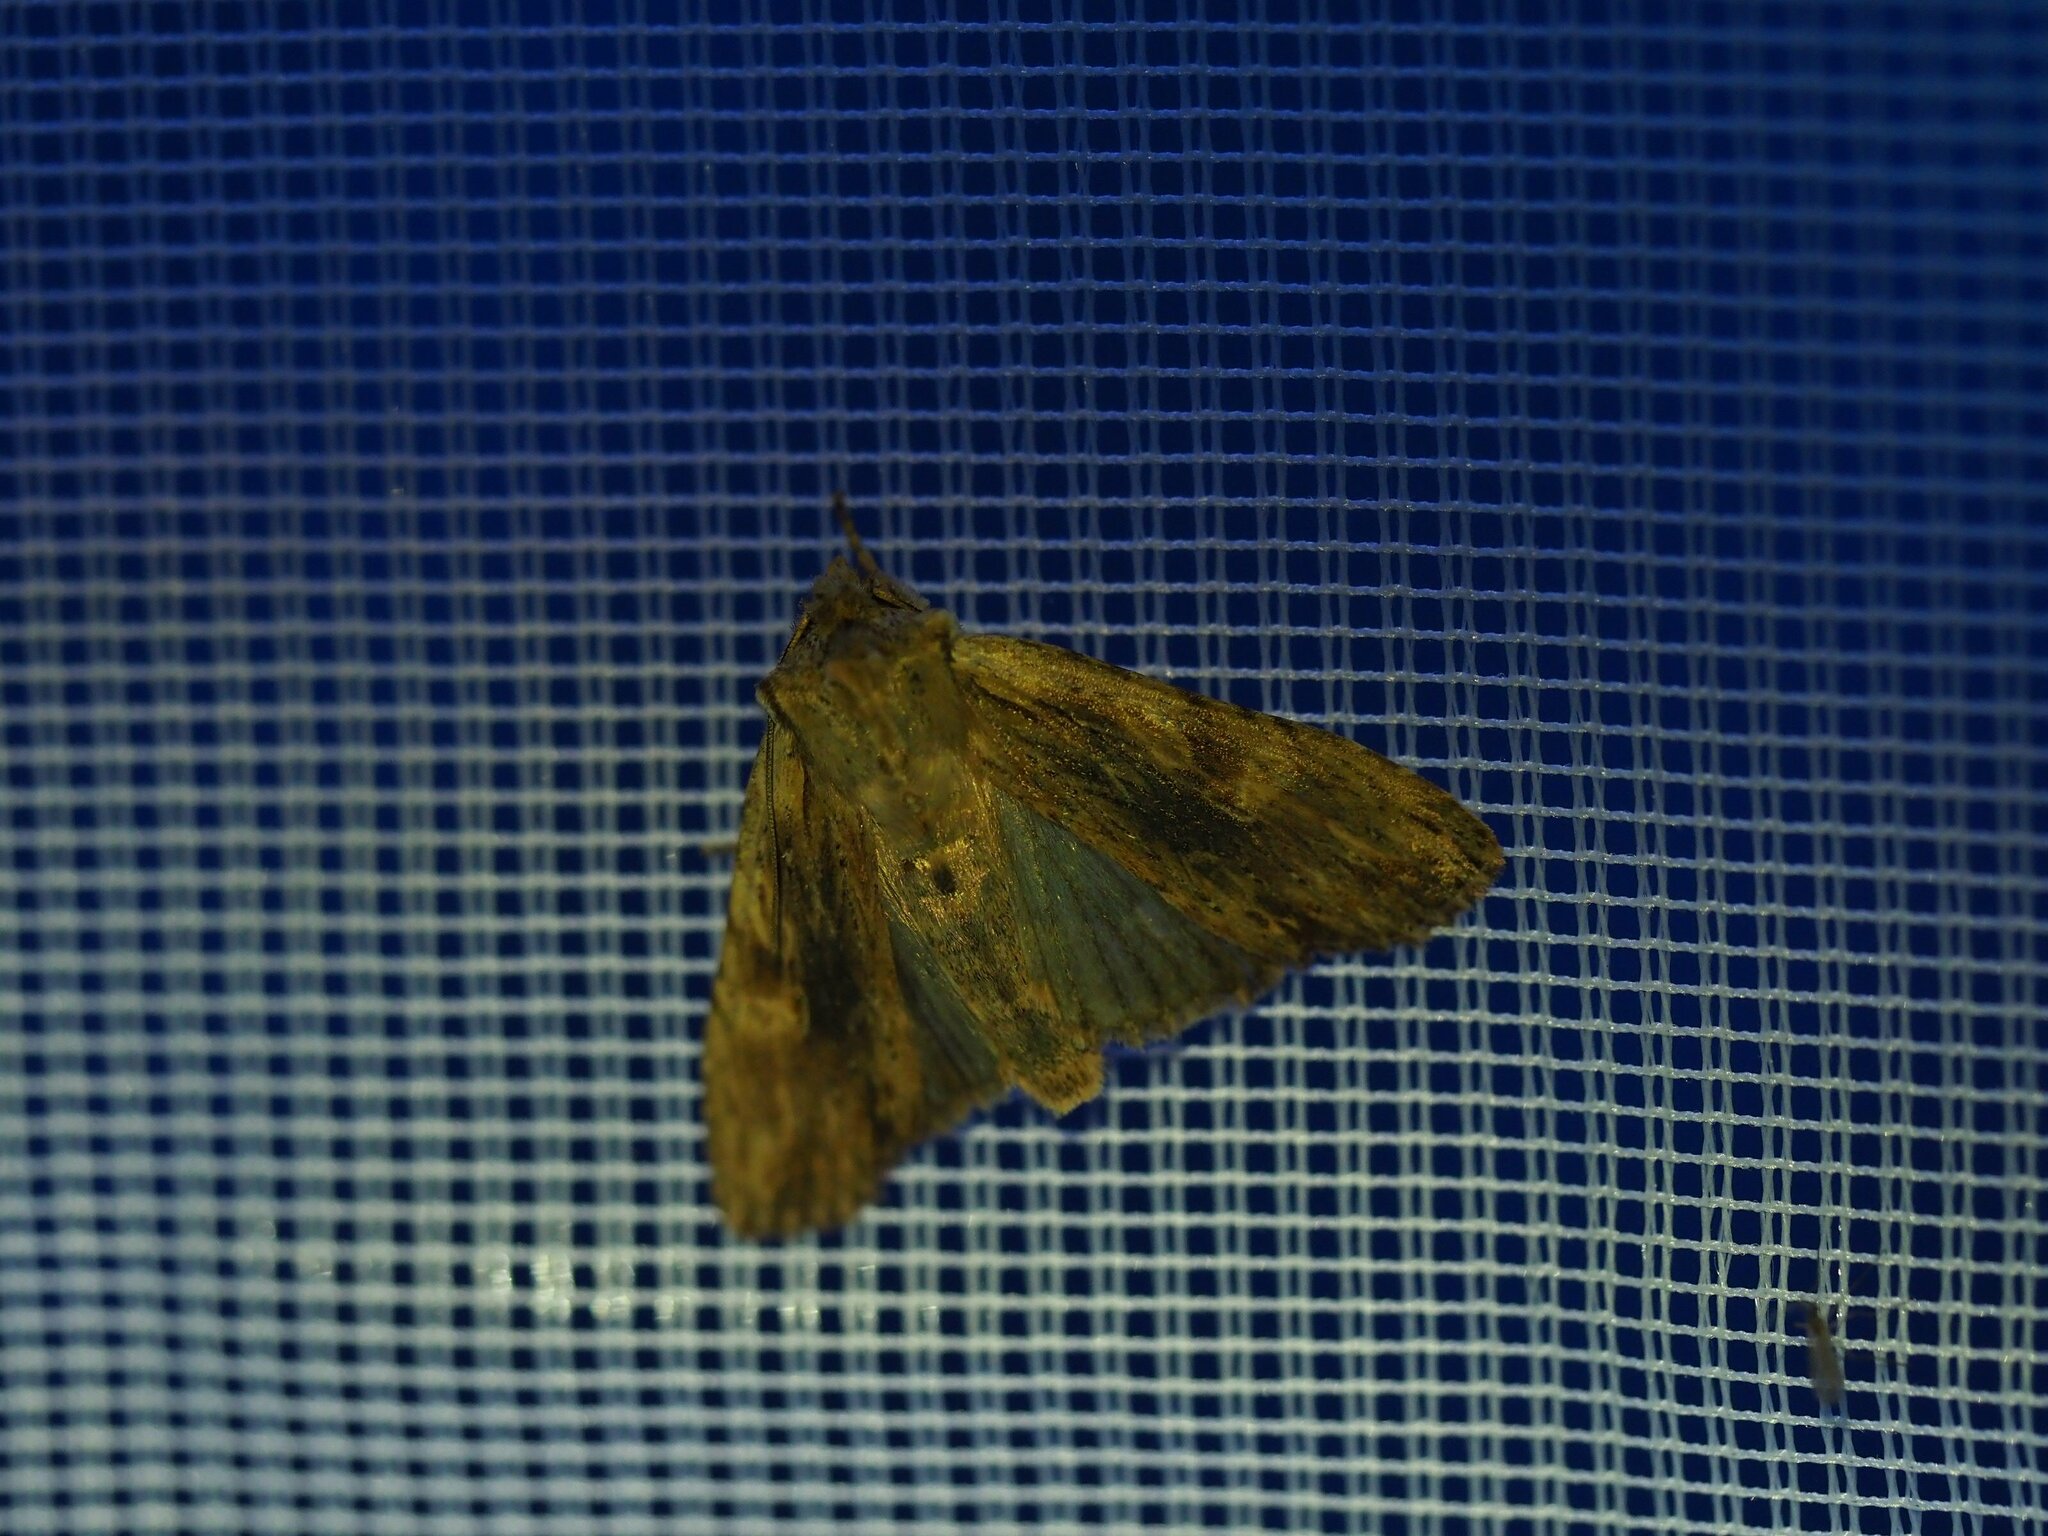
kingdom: Animalia
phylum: Arthropoda
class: Insecta
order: Lepidoptera
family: Noctuidae
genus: Lithophane
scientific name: Lithophane socia
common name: Pale pinion
